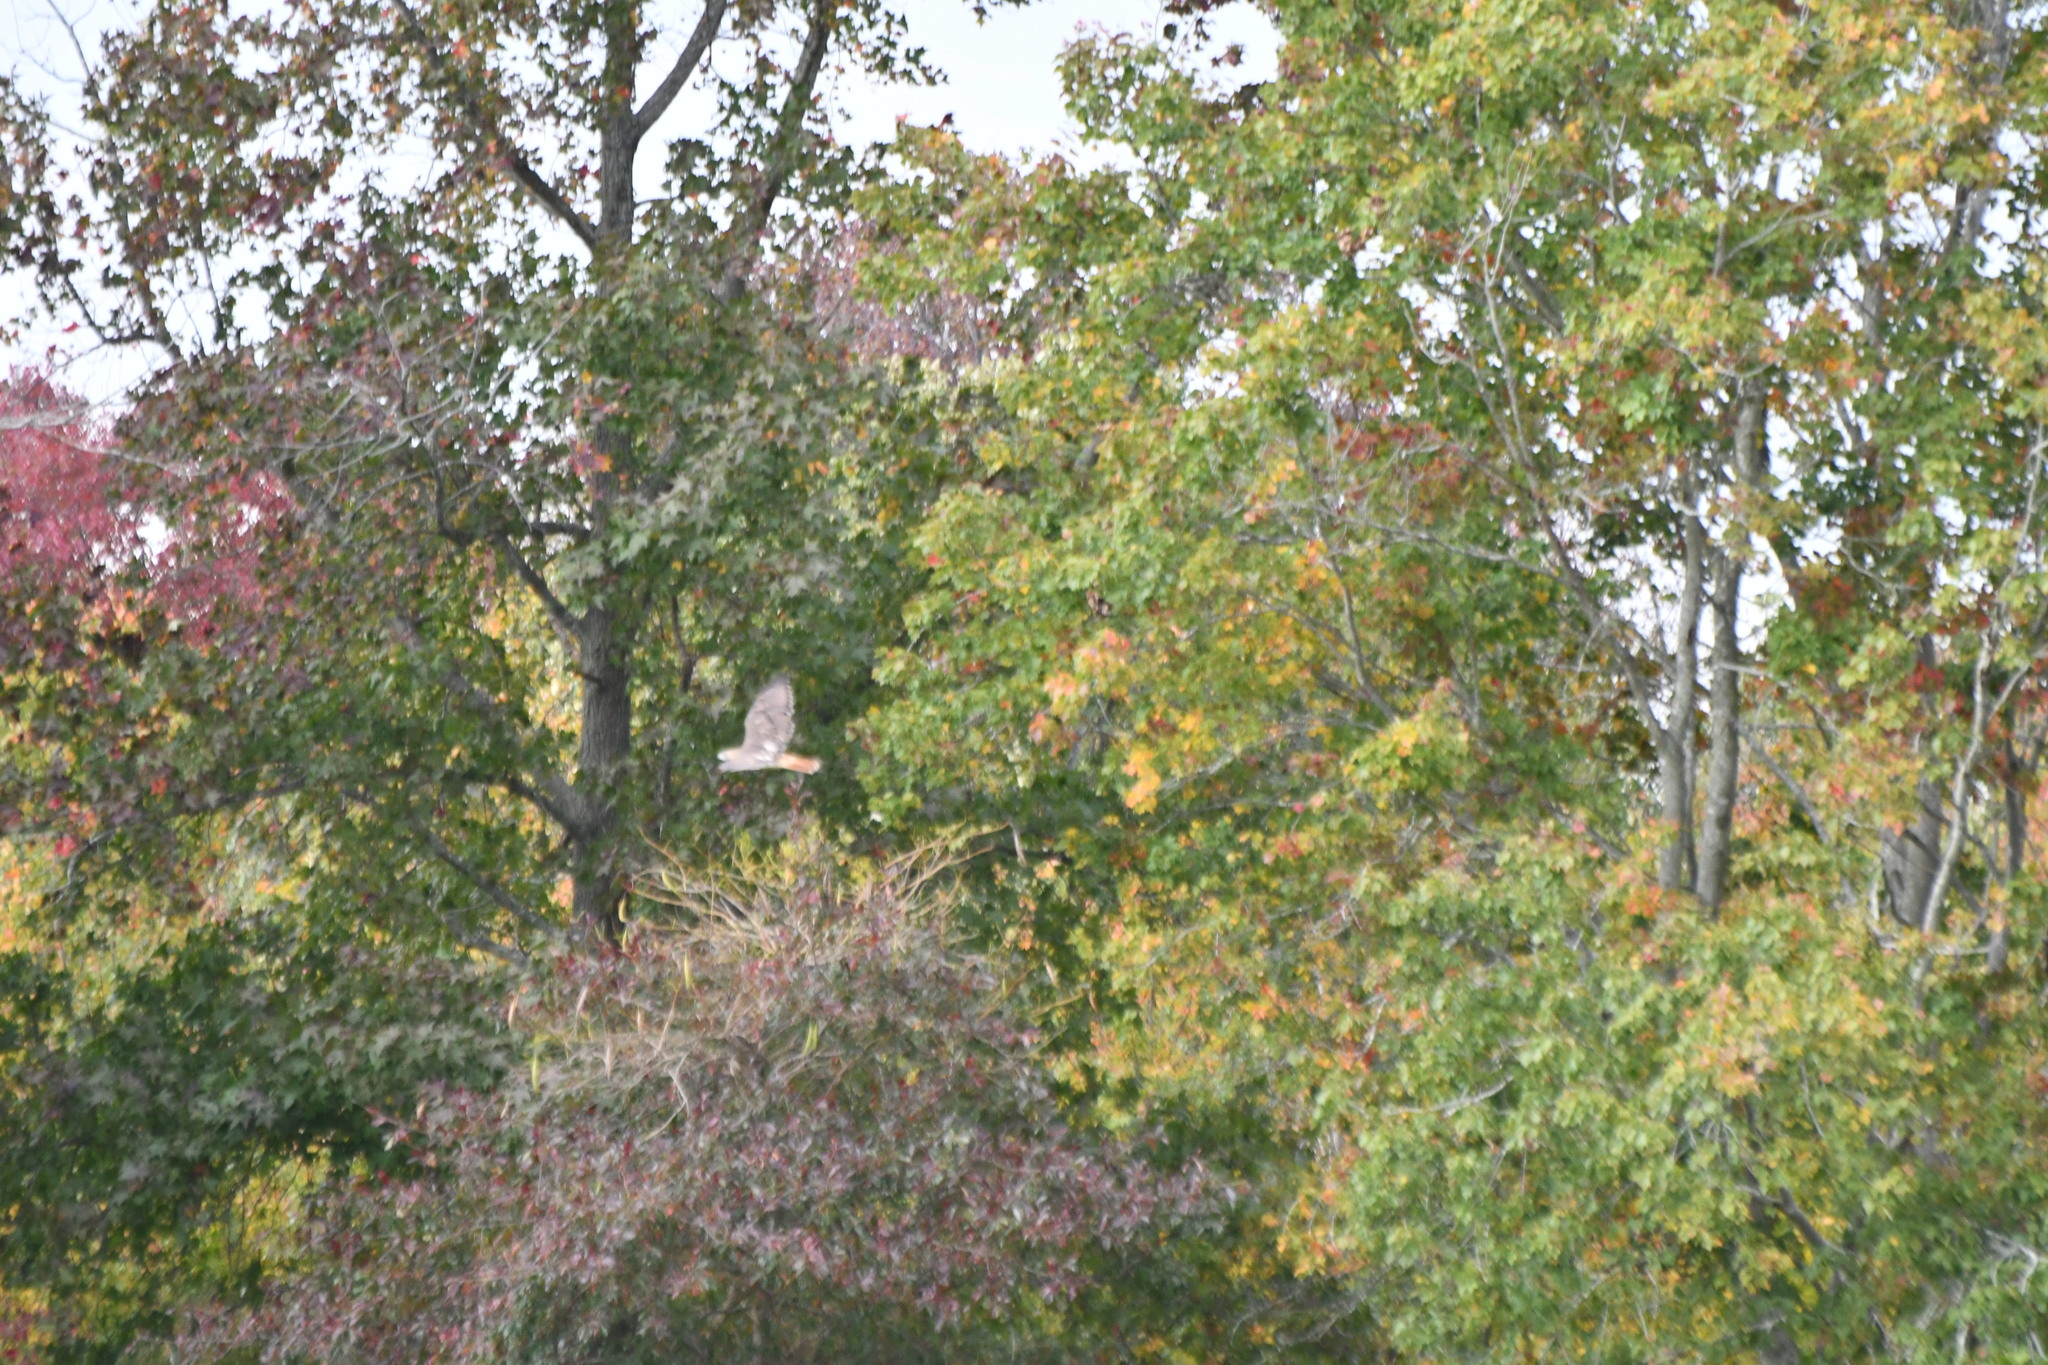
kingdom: Animalia
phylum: Chordata
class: Aves
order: Accipitriformes
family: Accipitridae
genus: Buteo
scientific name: Buteo jamaicensis
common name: Red-tailed hawk
